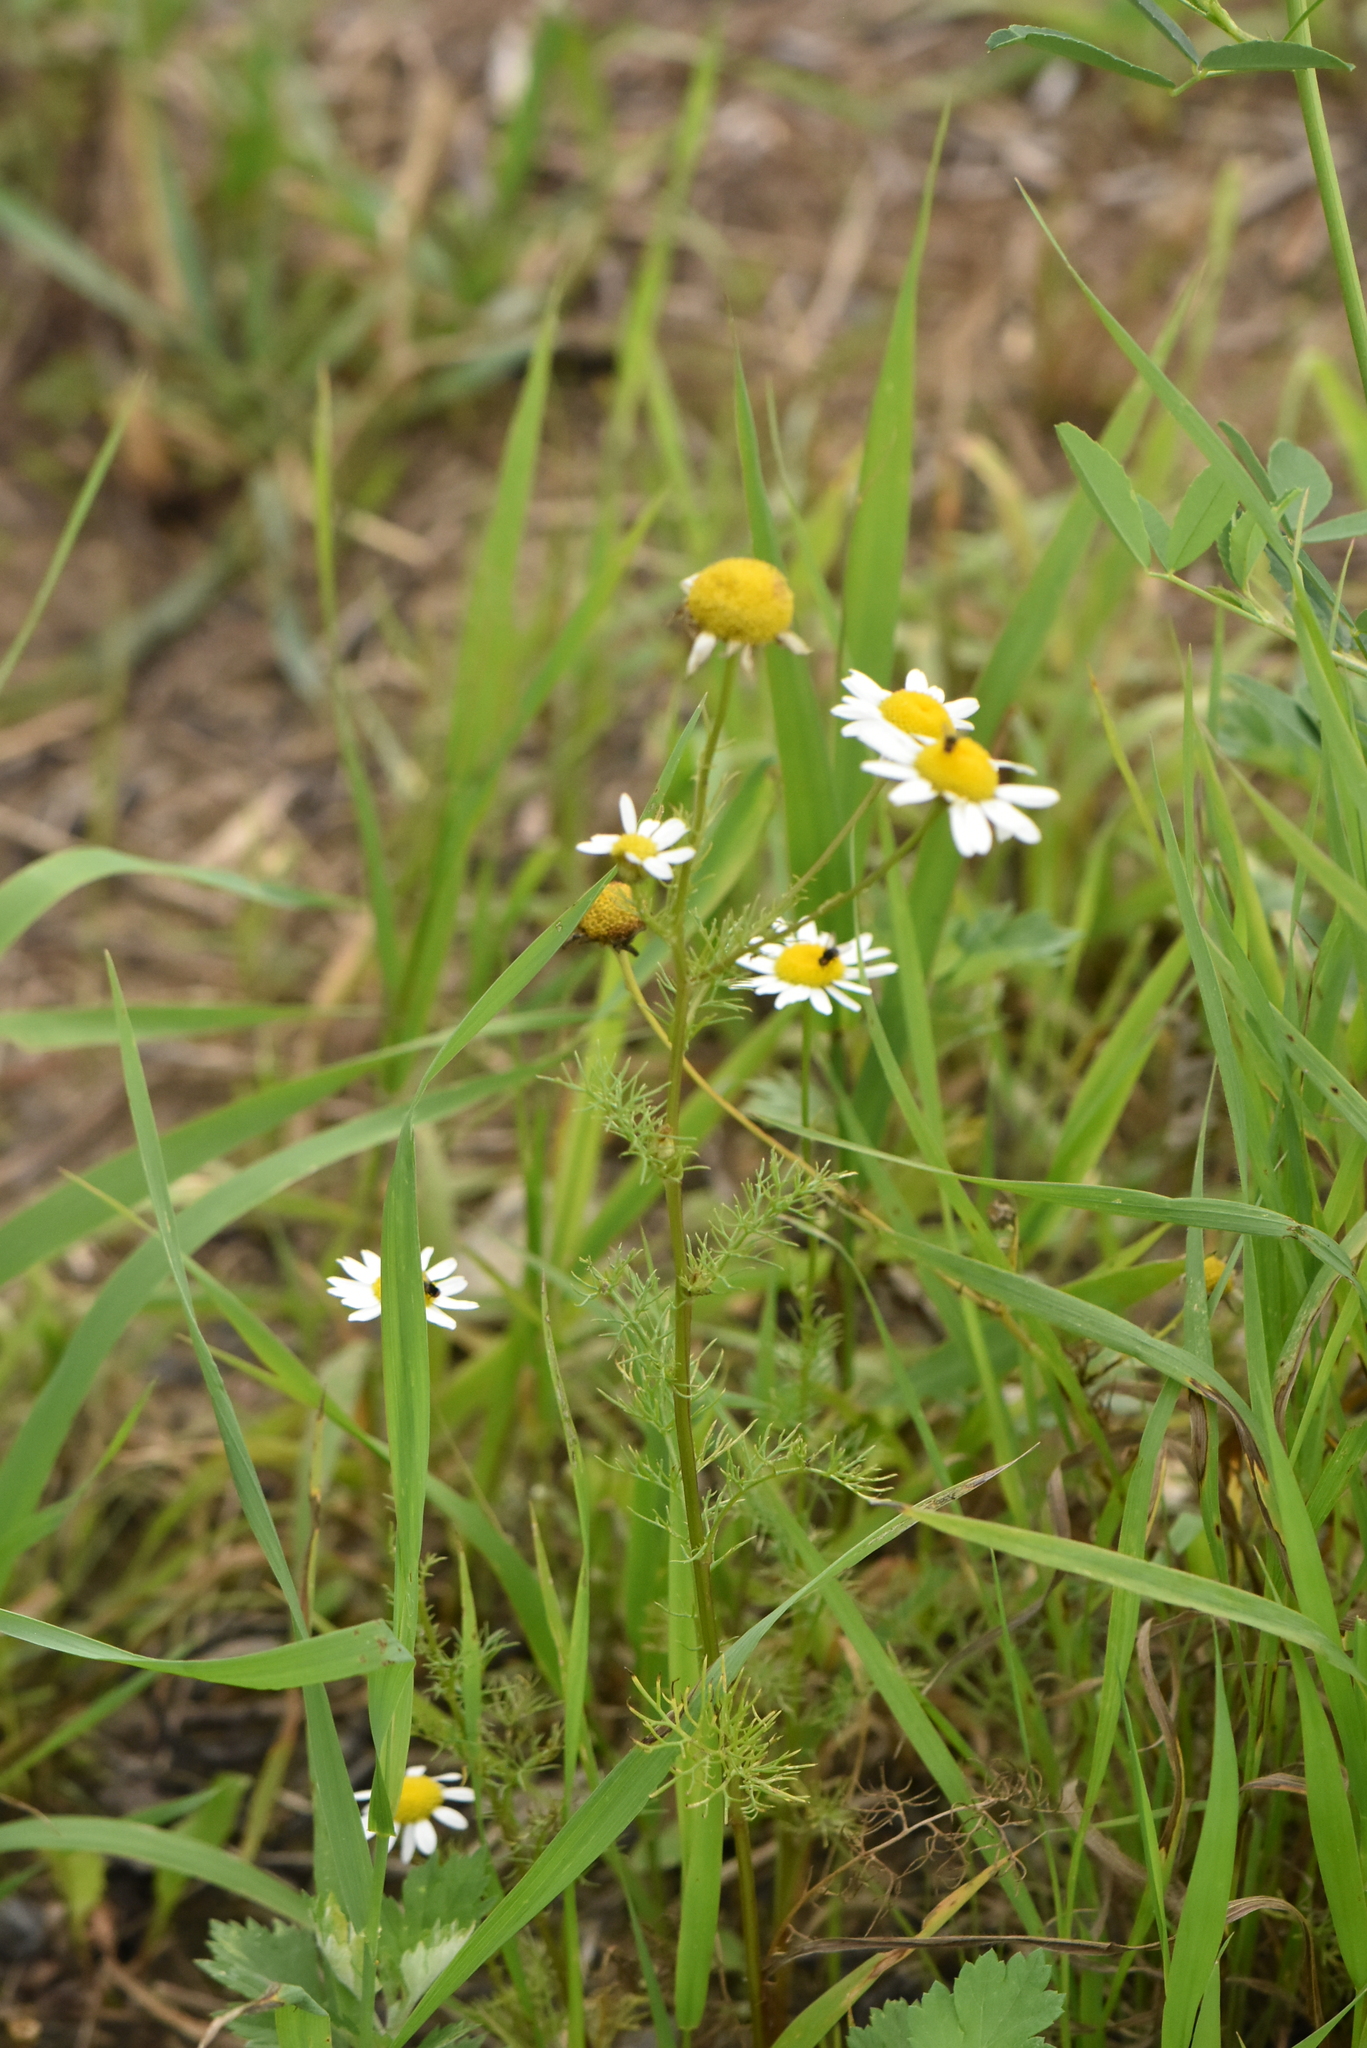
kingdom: Plantae
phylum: Tracheophyta
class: Magnoliopsida
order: Asterales
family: Asteraceae
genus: Tripleurospermum
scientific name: Tripleurospermum inodorum
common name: Scentless mayweed
